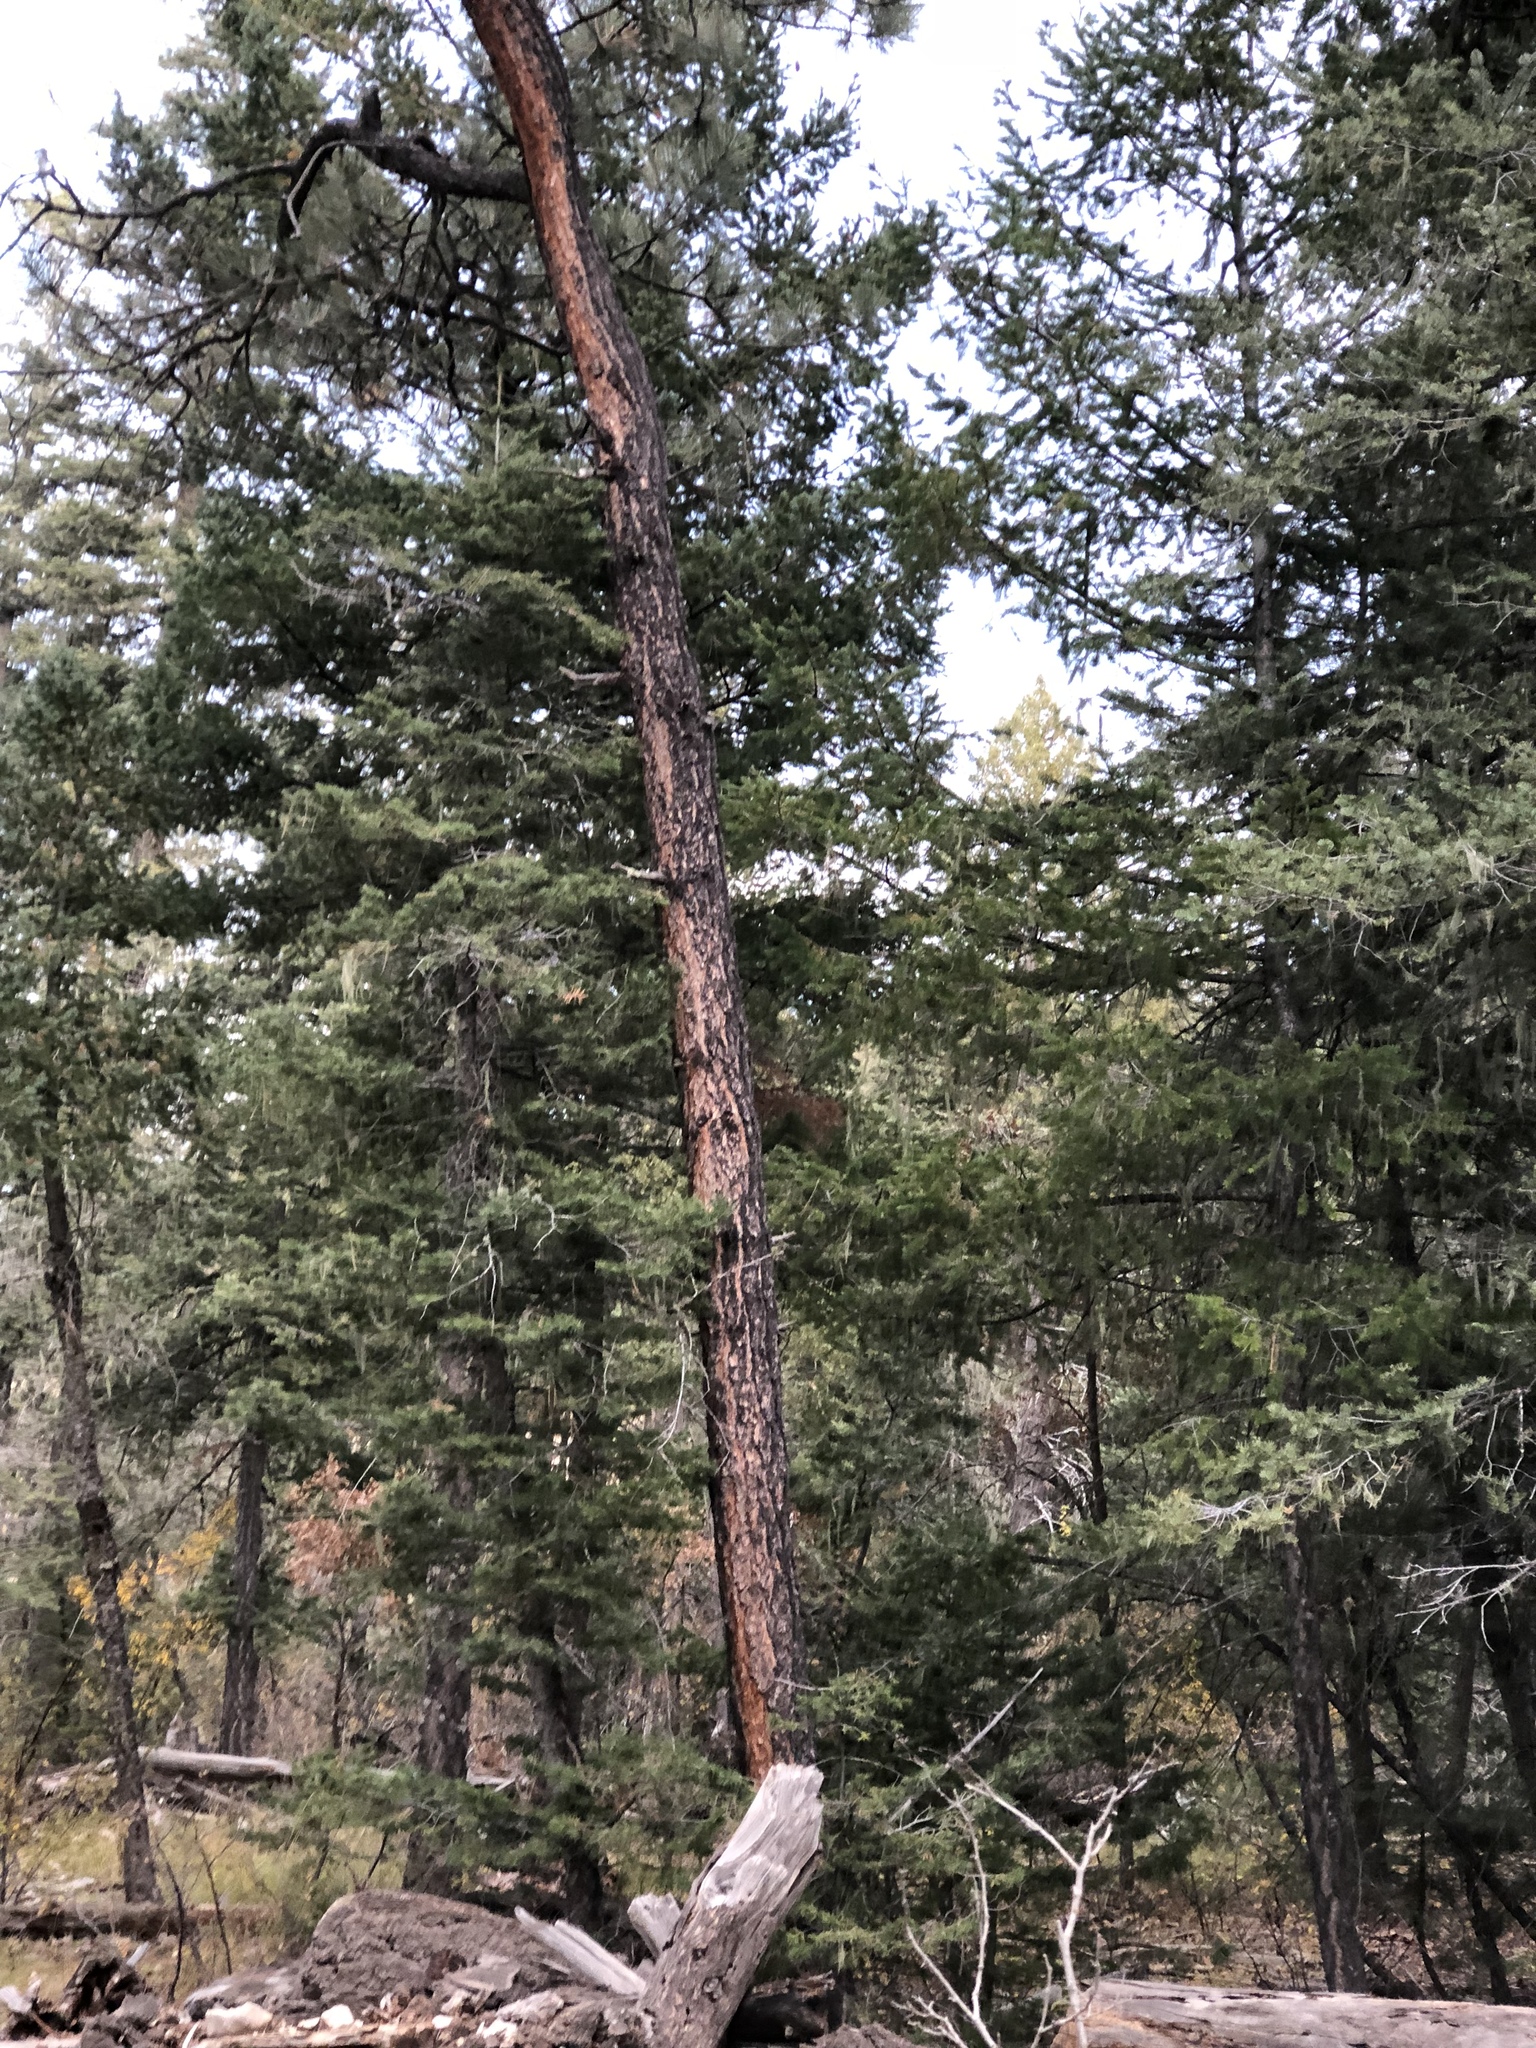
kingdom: Plantae
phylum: Tracheophyta
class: Pinopsida
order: Pinales
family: Pinaceae
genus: Pinus
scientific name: Pinus ponderosa
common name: Western yellow-pine
